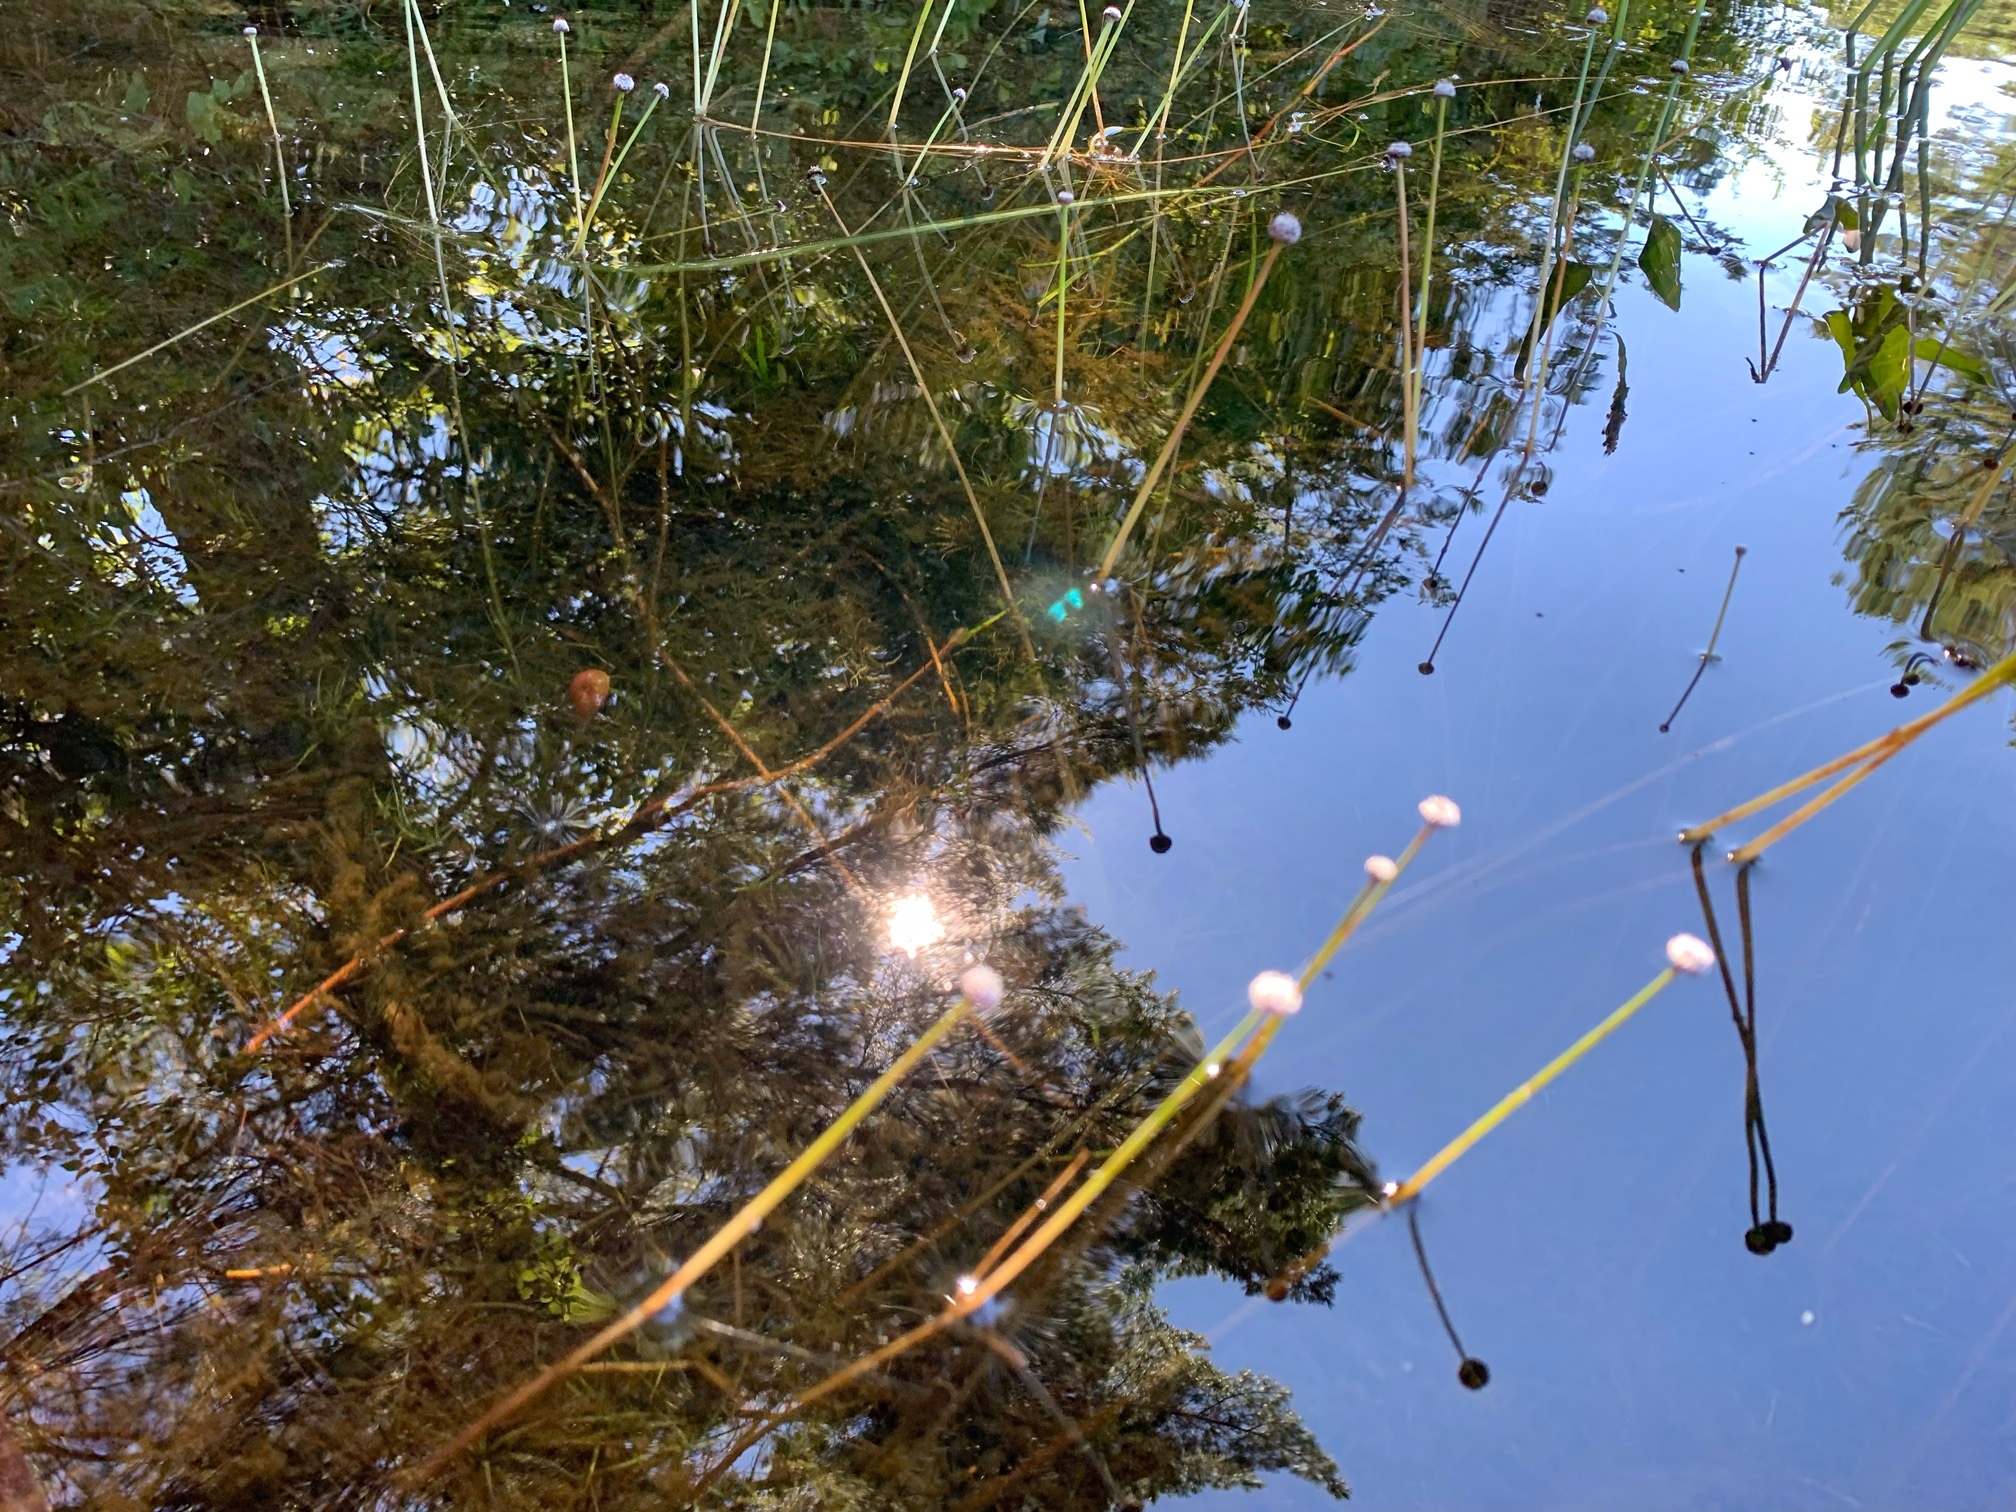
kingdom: Plantae
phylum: Tracheophyta
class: Liliopsida
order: Poales
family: Eriocaulaceae
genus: Eriocaulon
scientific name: Eriocaulon aquaticum
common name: Pipewort
